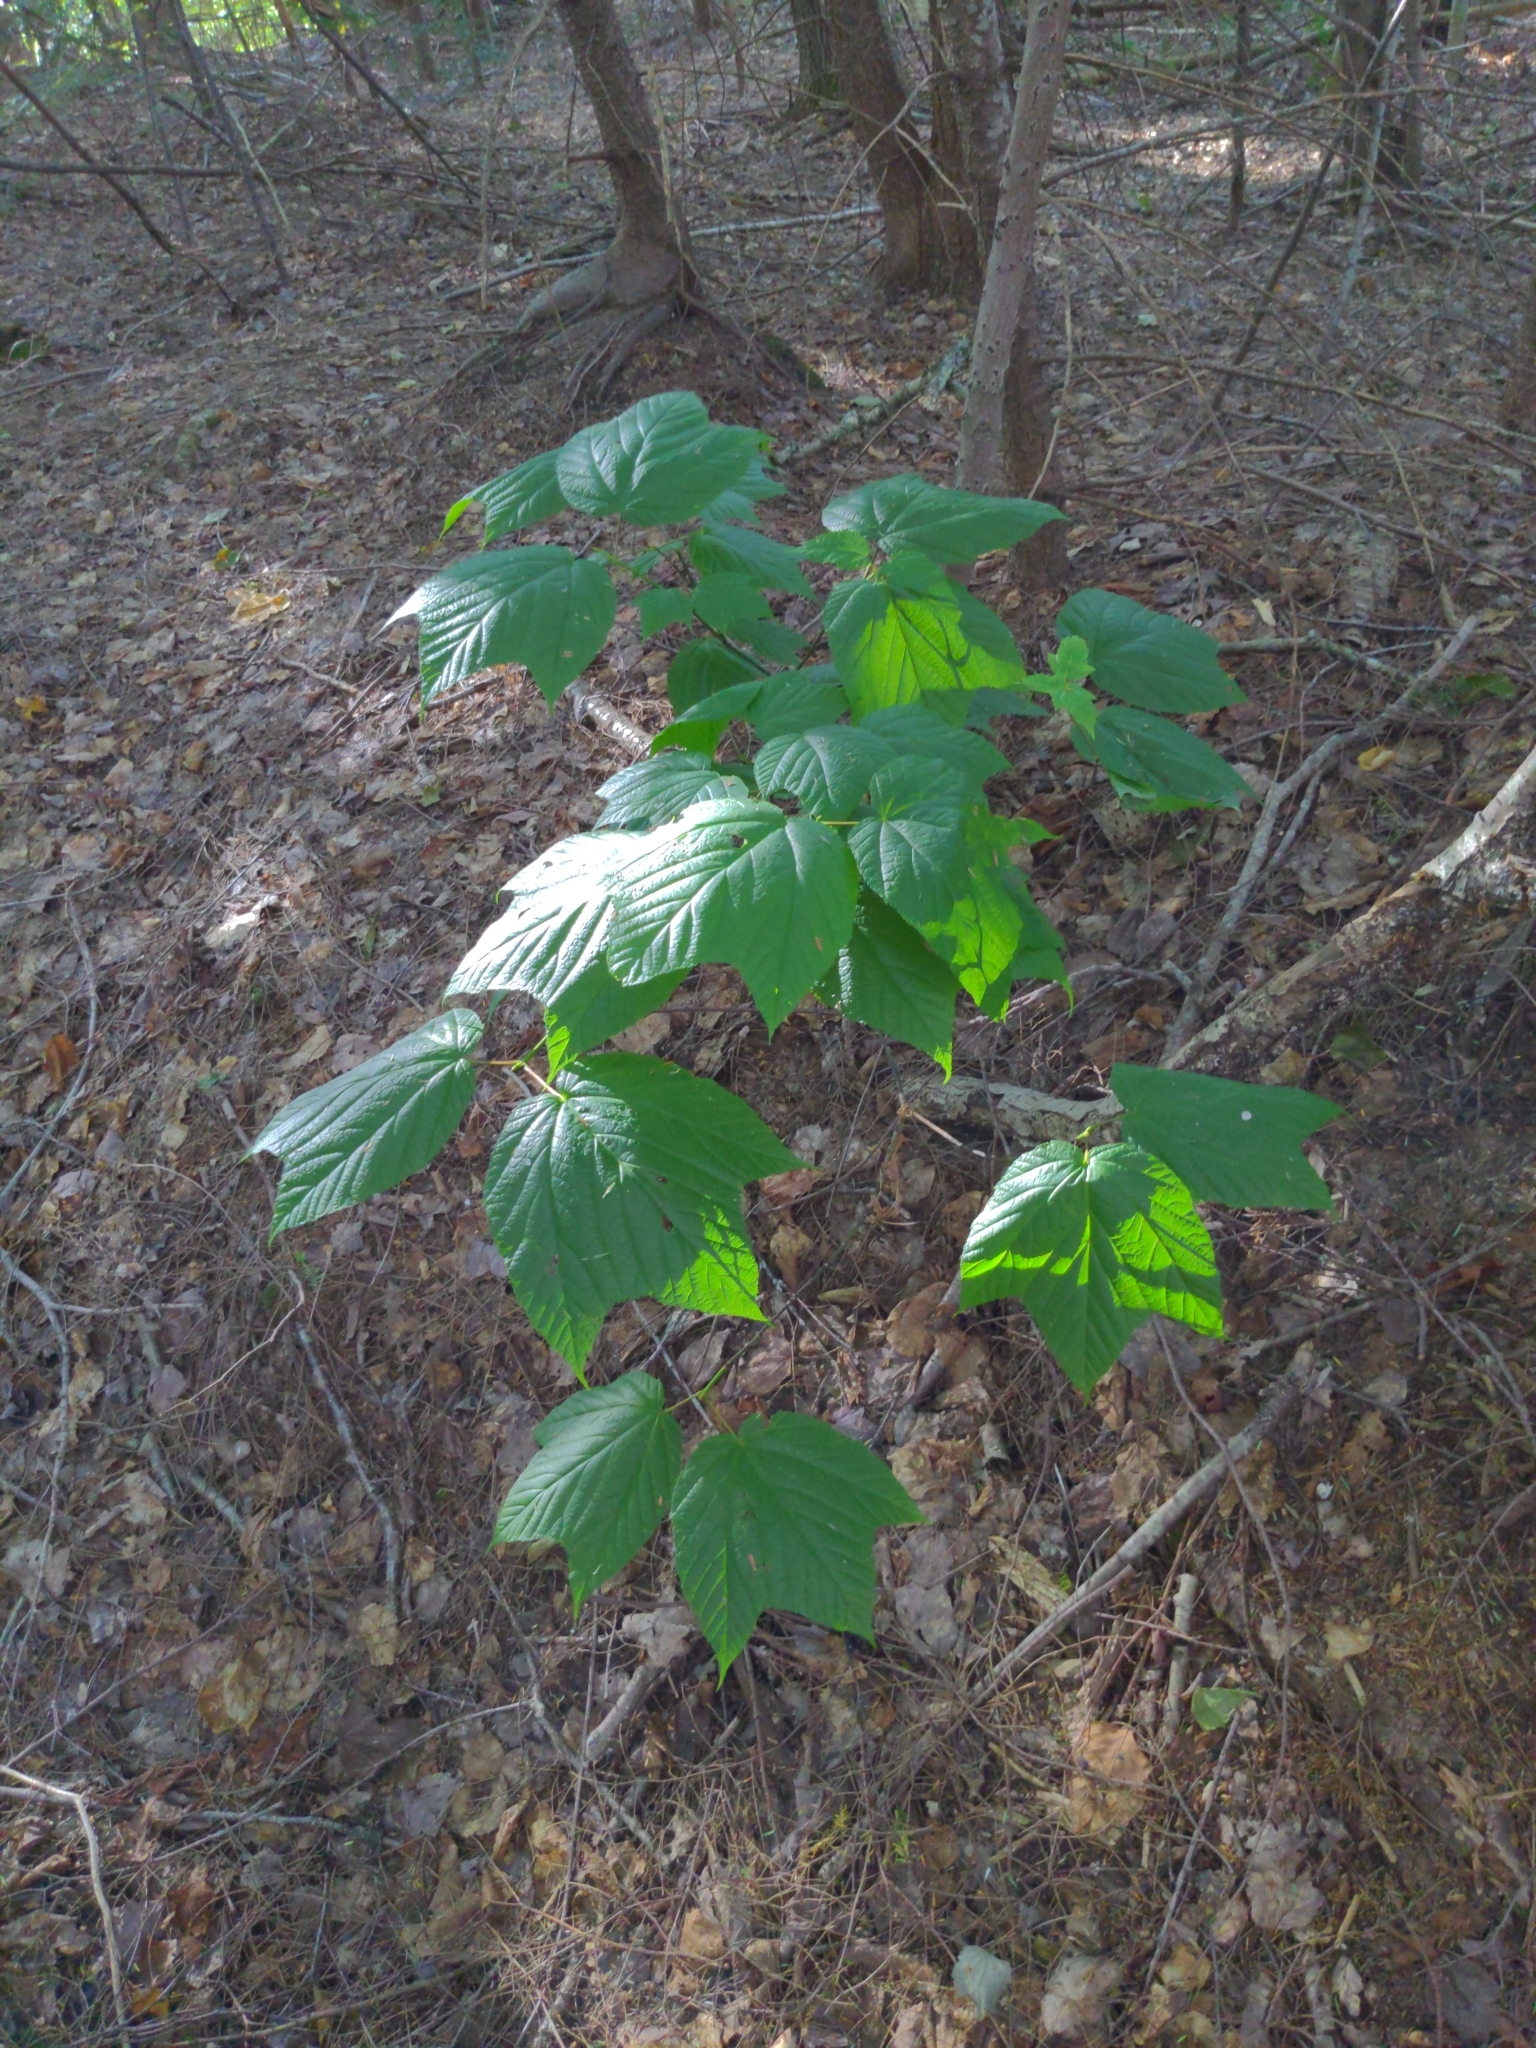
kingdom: Plantae
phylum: Tracheophyta
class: Magnoliopsida
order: Sapindales
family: Sapindaceae
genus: Acer
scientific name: Acer pensylvanicum
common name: Moosewood
